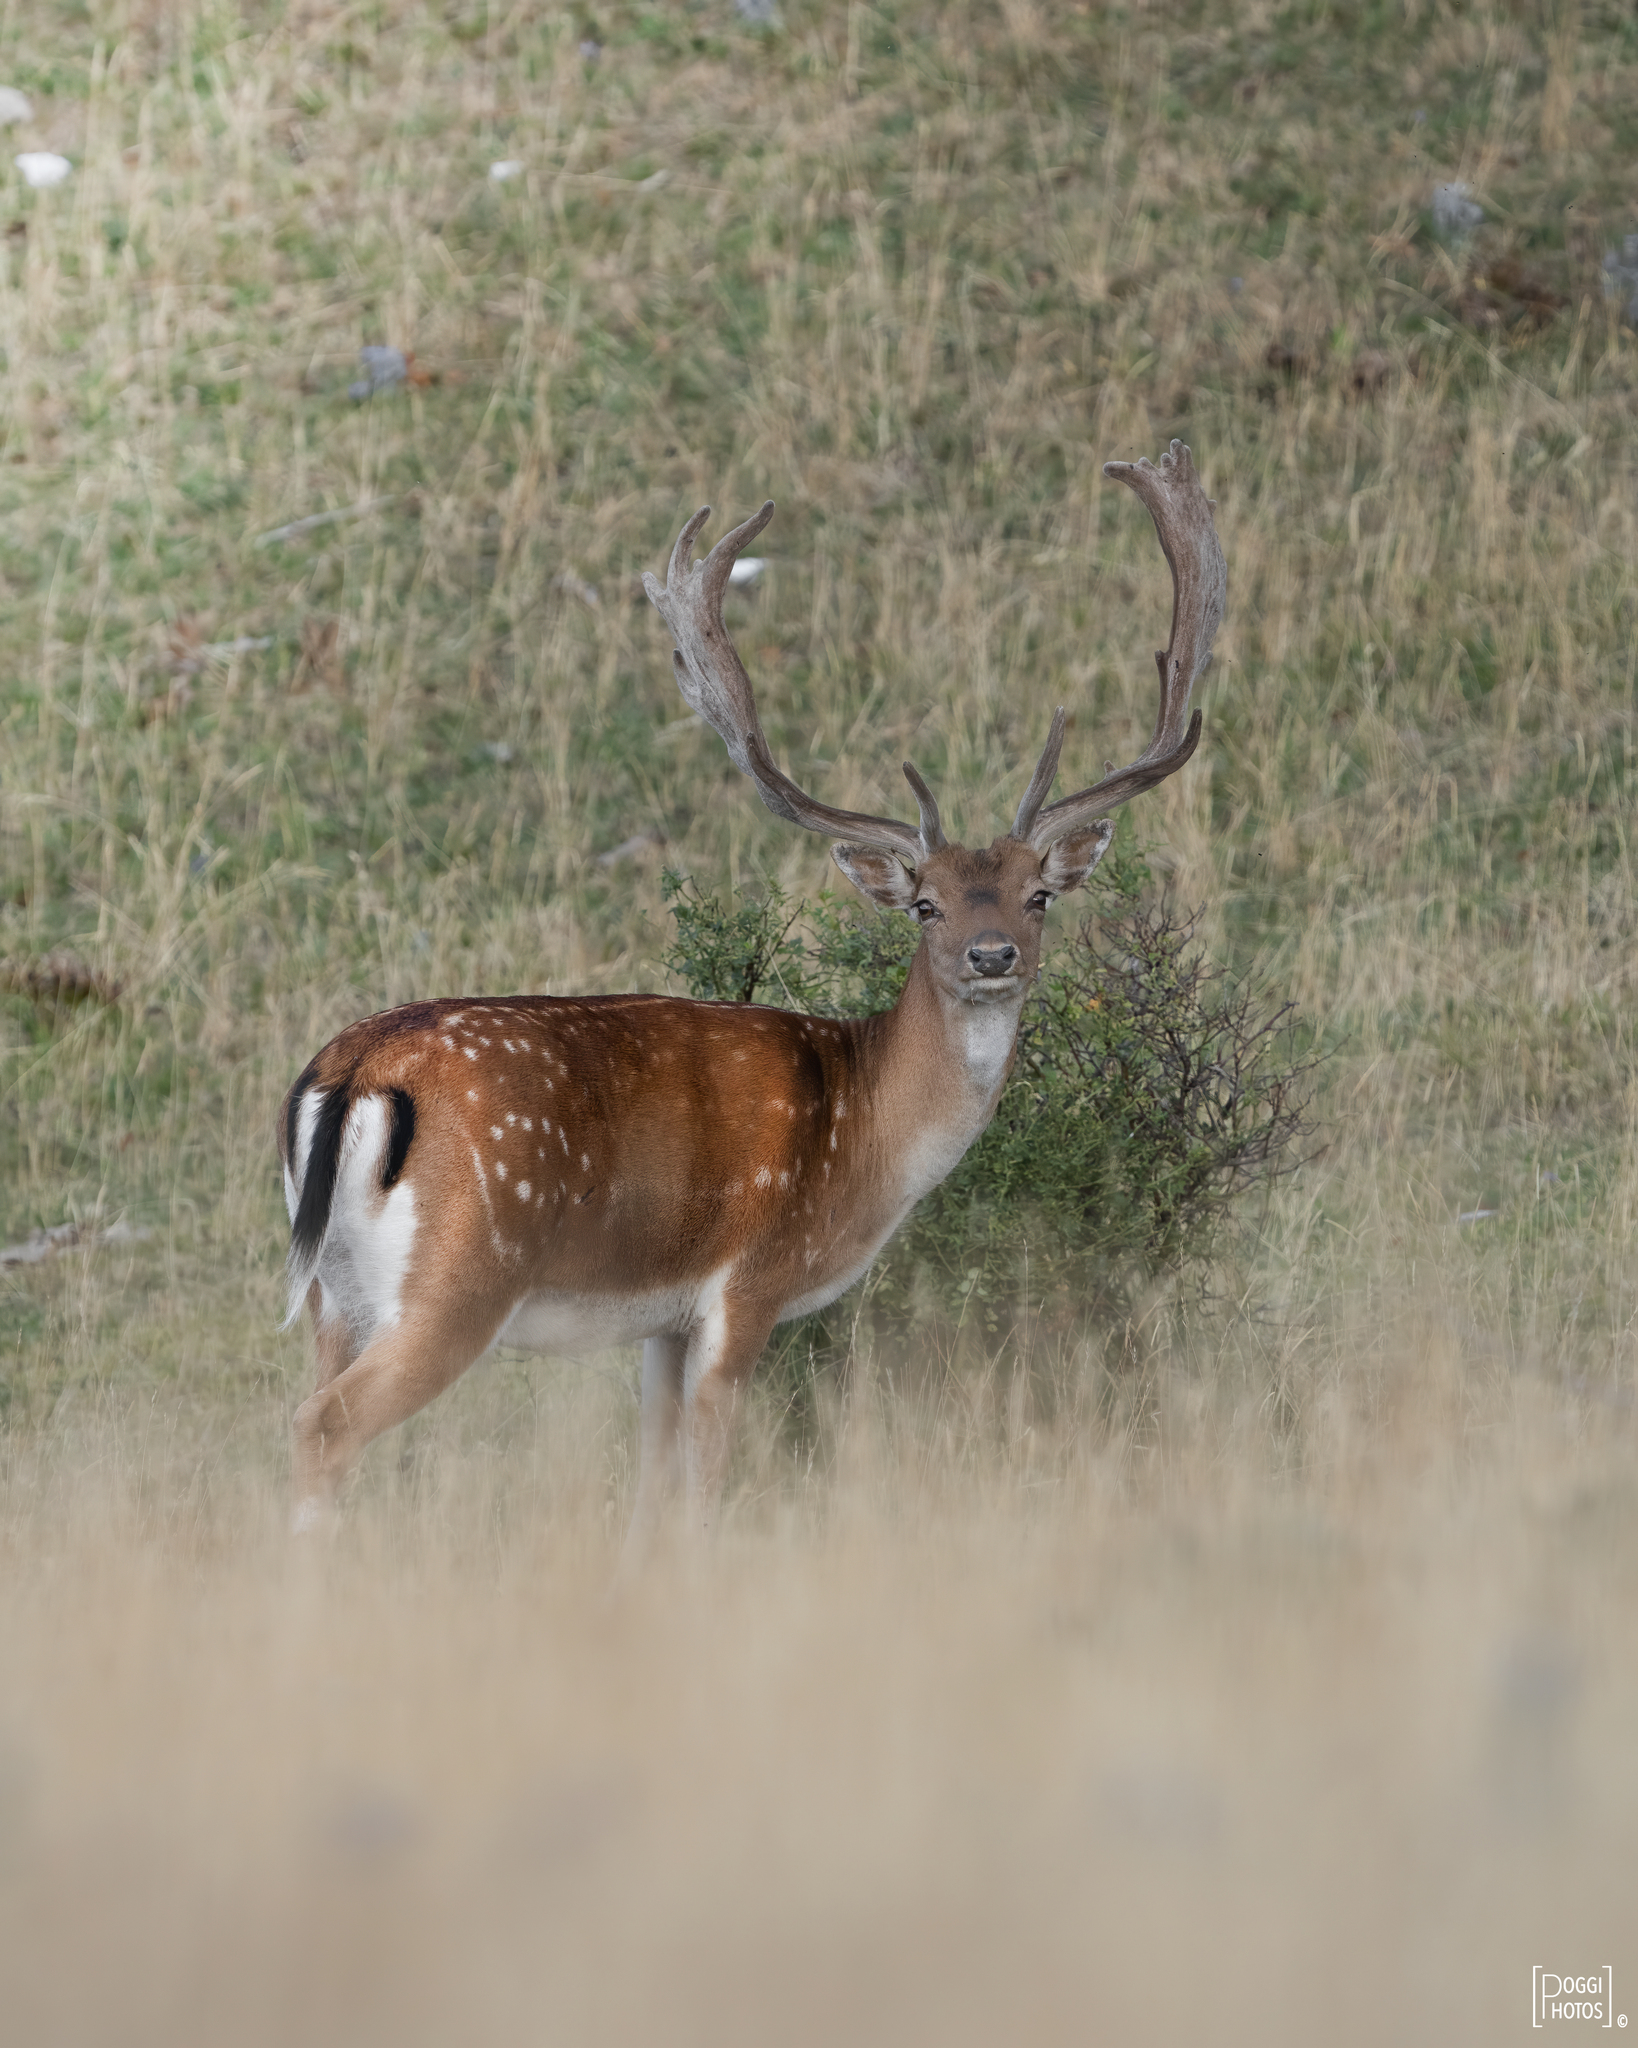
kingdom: Animalia
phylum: Chordata
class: Mammalia
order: Artiodactyla
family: Cervidae
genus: Dama
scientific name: Dama dama
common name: Fallow deer
